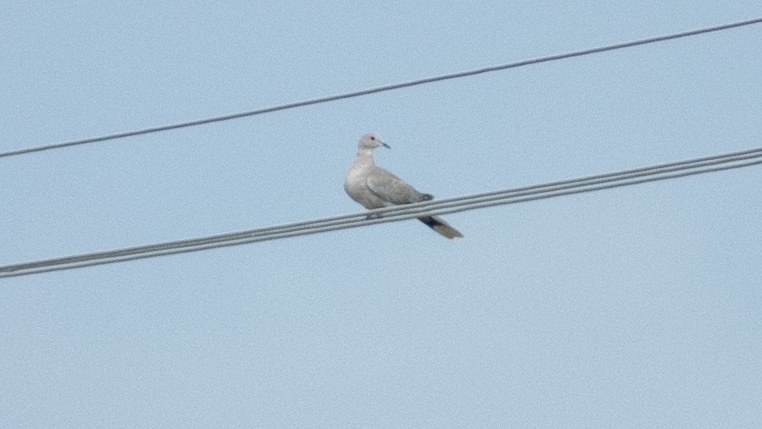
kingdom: Animalia
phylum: Chordata
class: Aves
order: Columbiformes
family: Columbidae
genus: Streptopelia
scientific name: Streptopelia decaocto
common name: Eurasian collared dove
